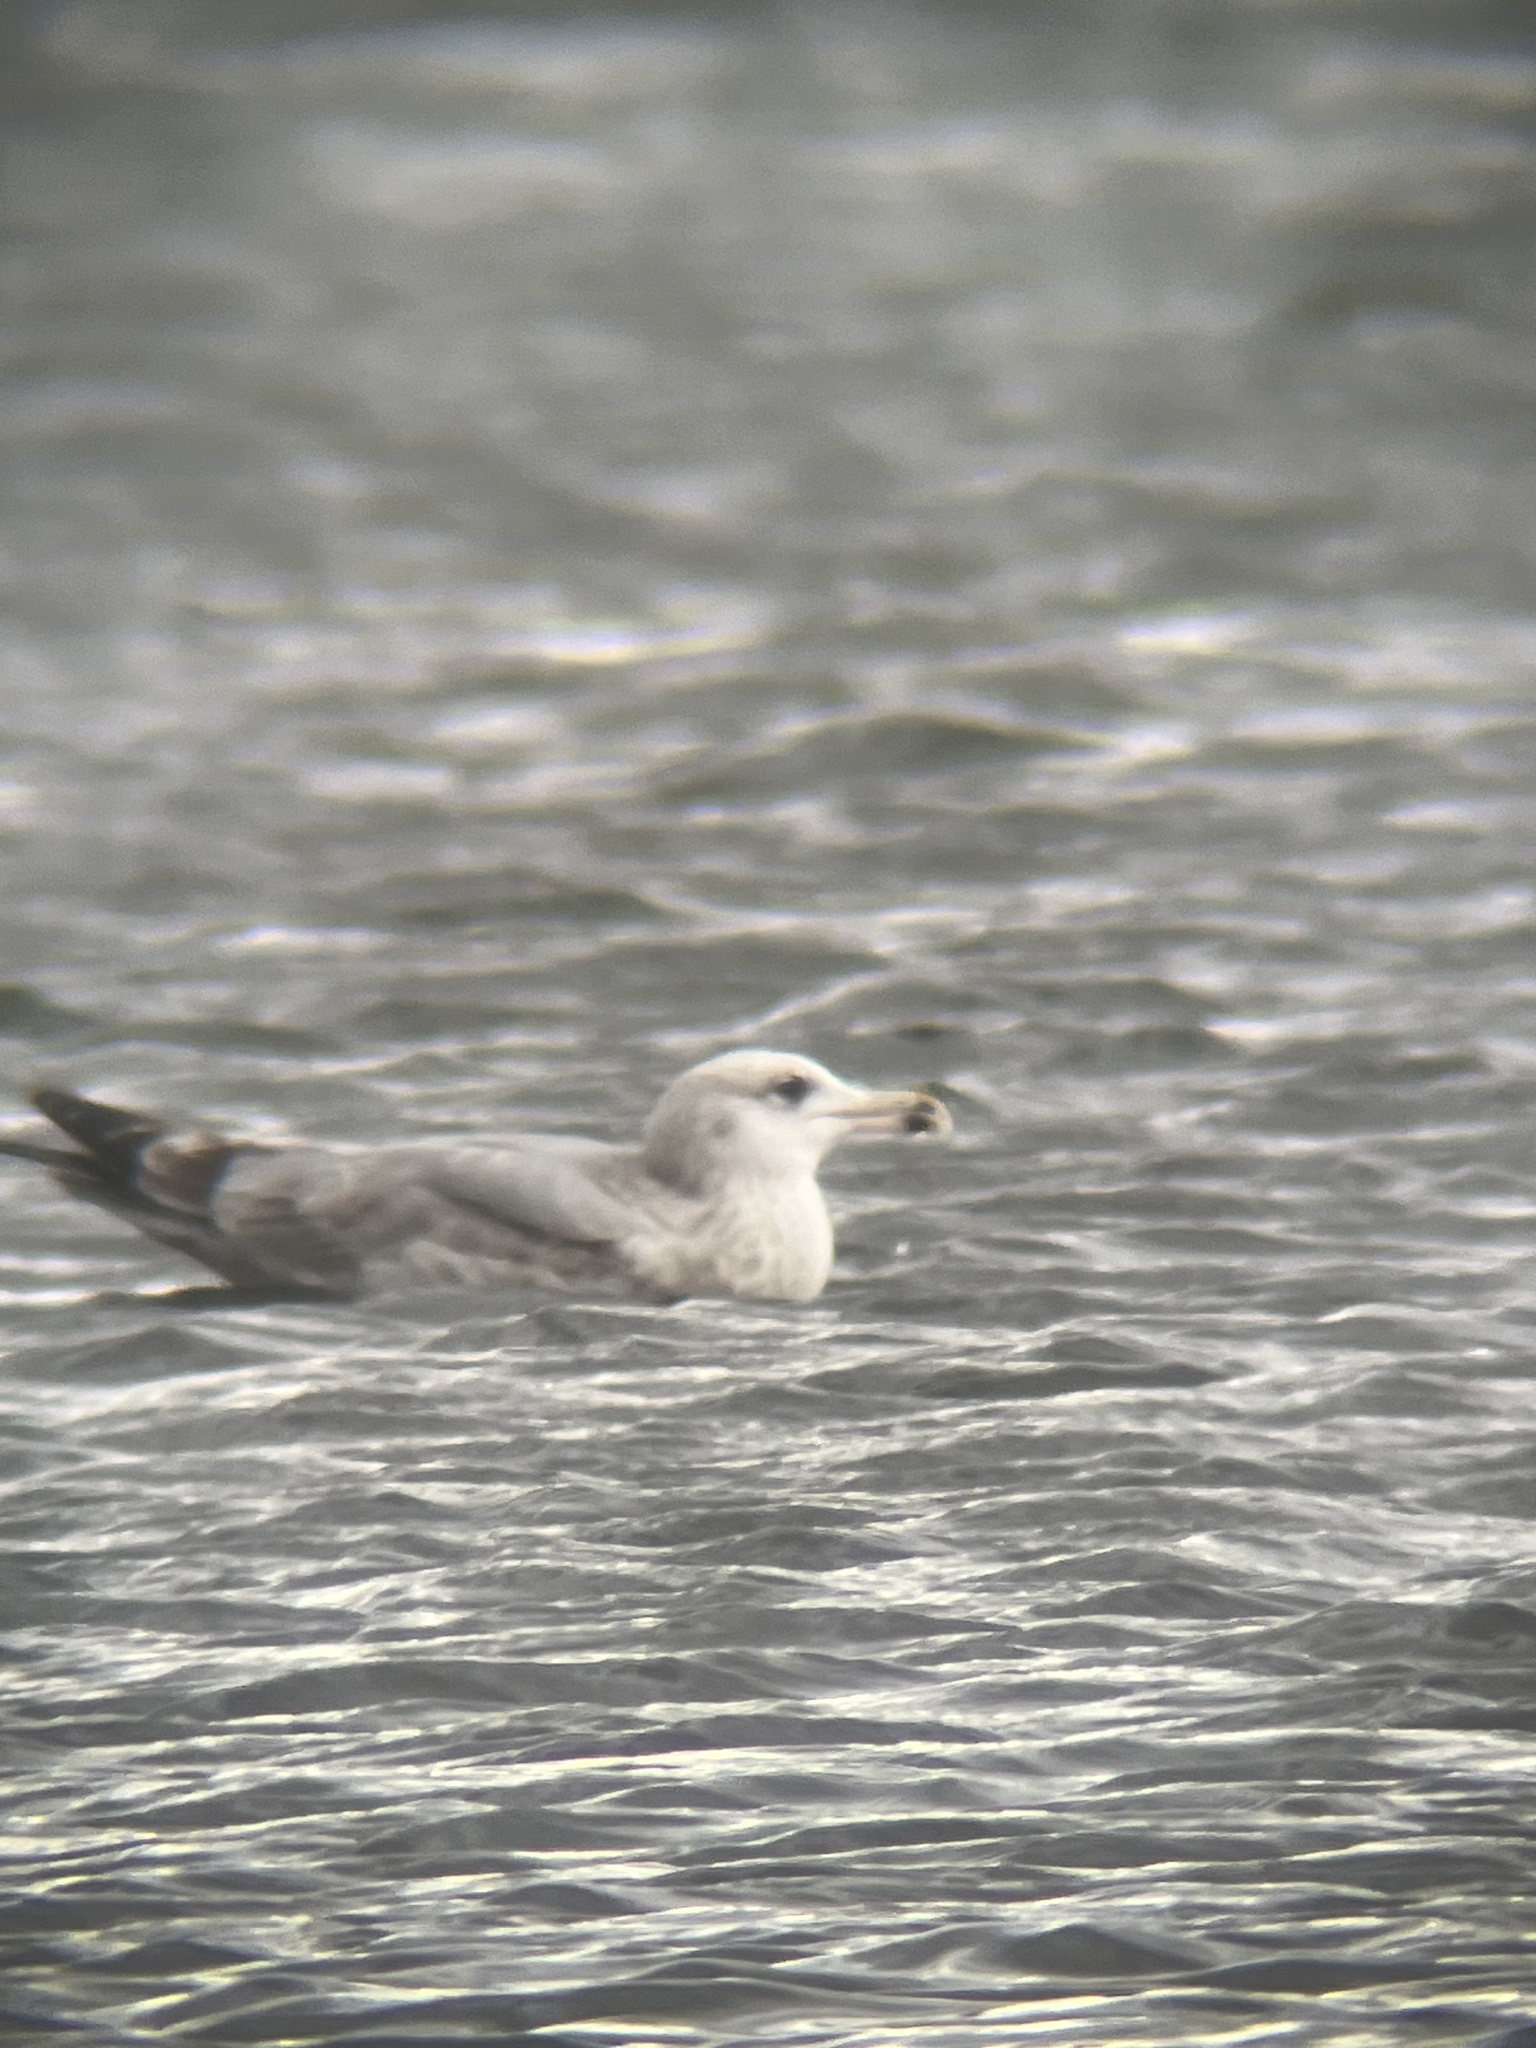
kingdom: Animalia
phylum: Chordata
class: Aves
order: Charadriiformes
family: Laridae
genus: Larus
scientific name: Larus argentatus
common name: Herring gull
